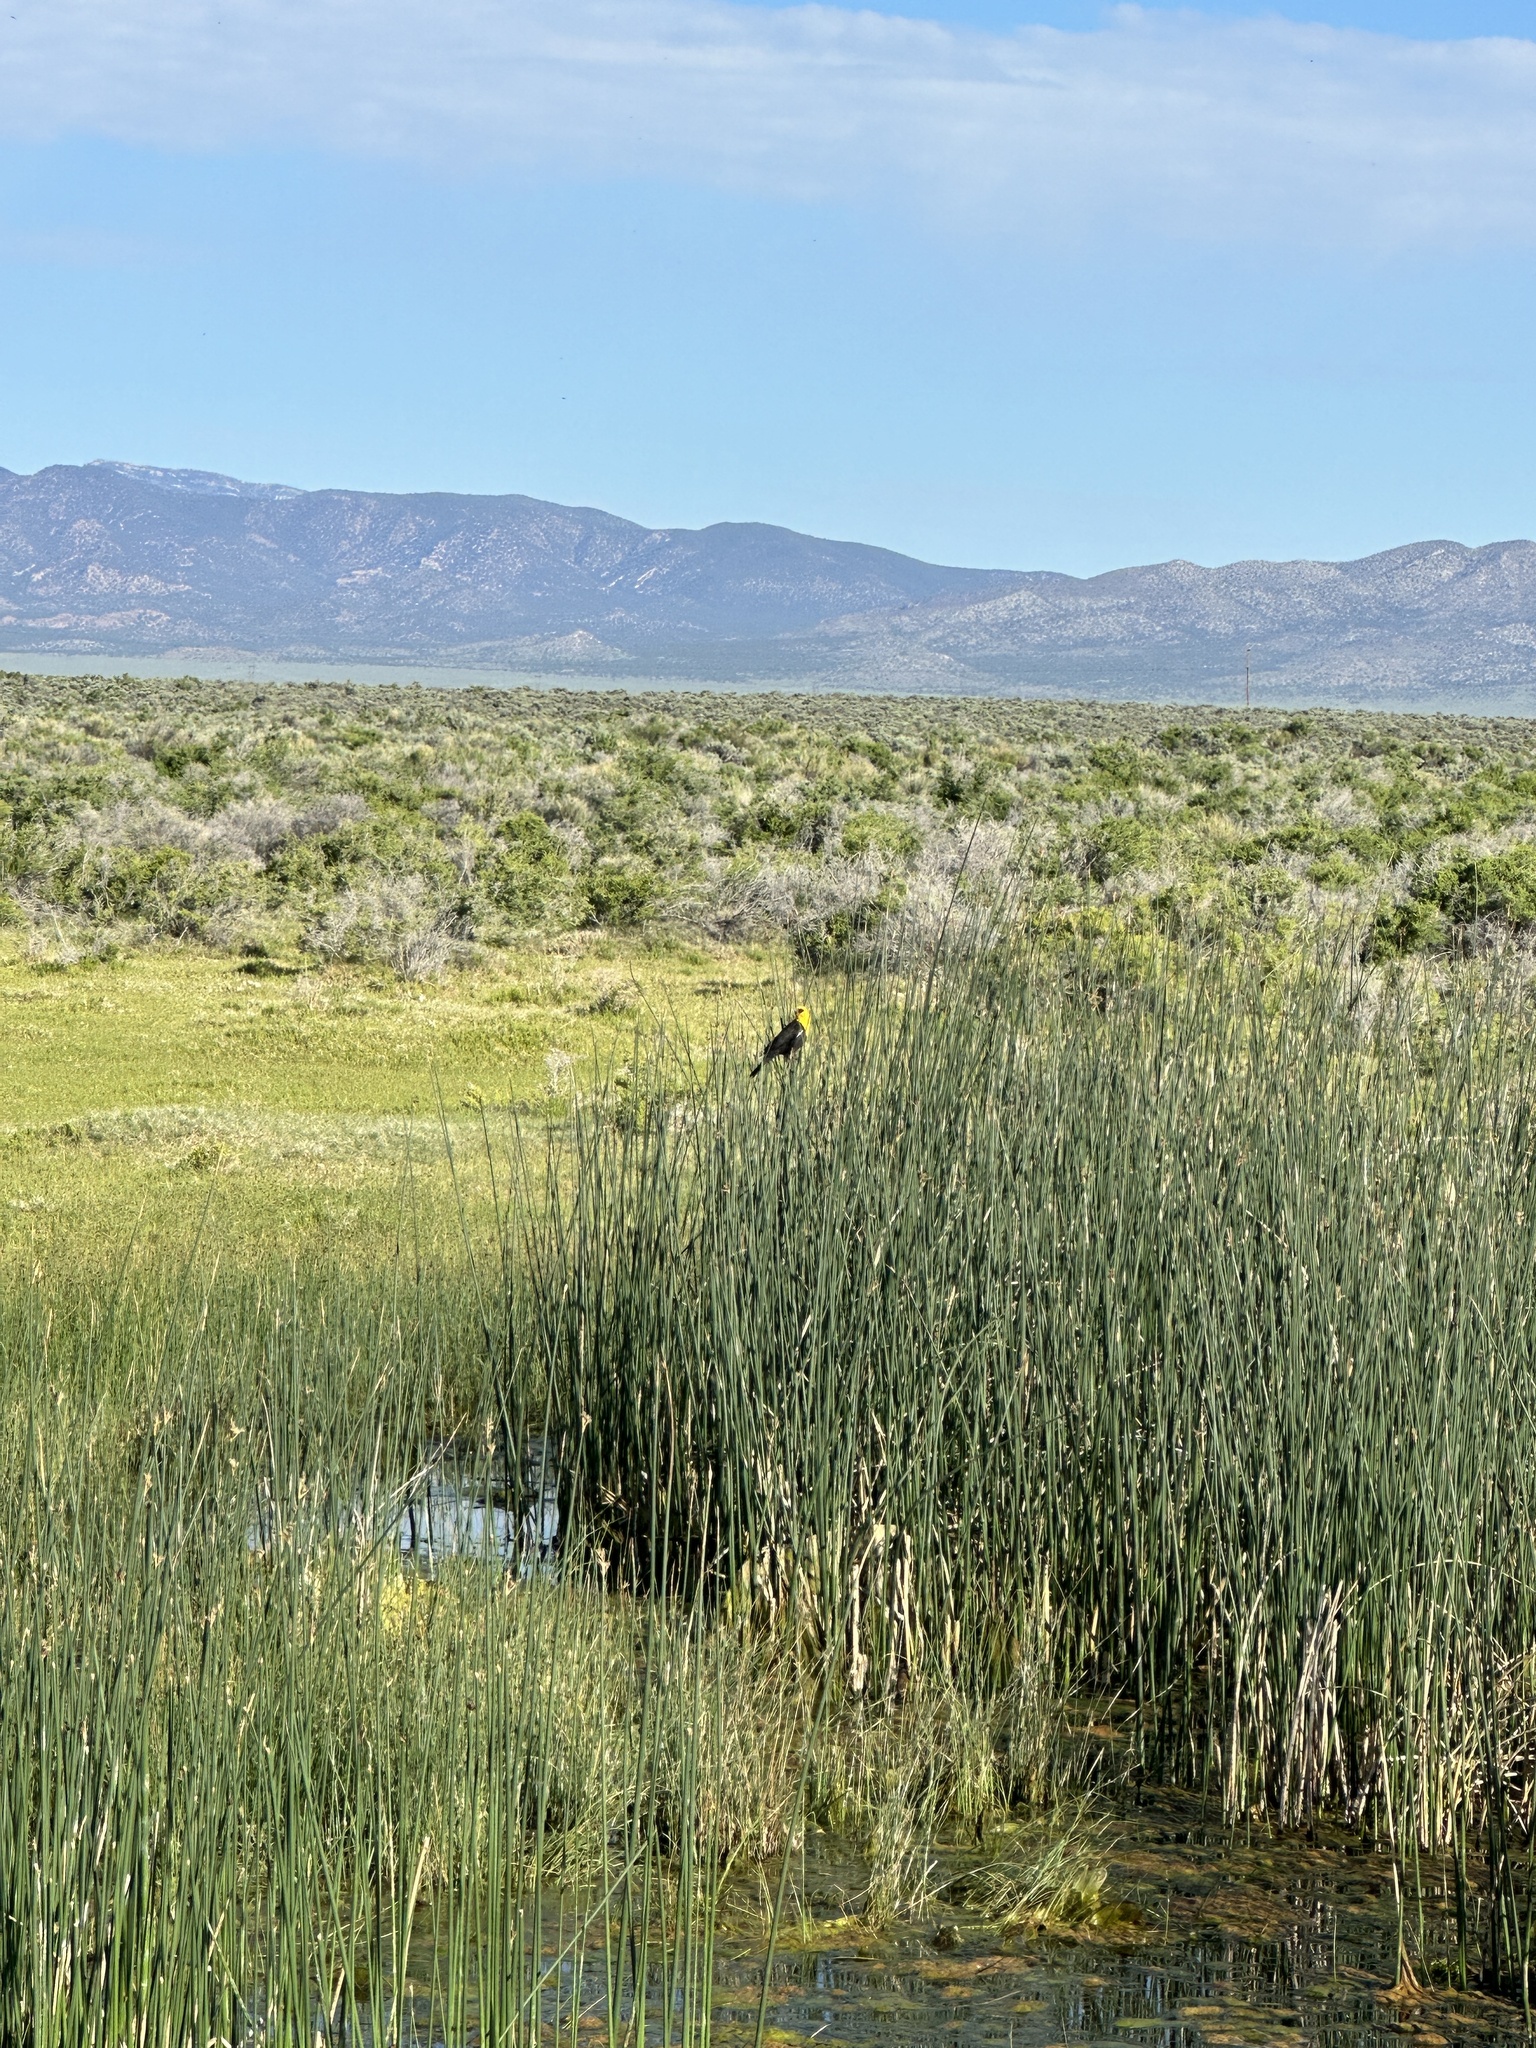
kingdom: Animalia
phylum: Chordata
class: Aves
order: Passeriformes
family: Icteridae
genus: Xanthocephalus
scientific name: Xanthocephalus xanthocephalus
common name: Yellow-headed blackbird
